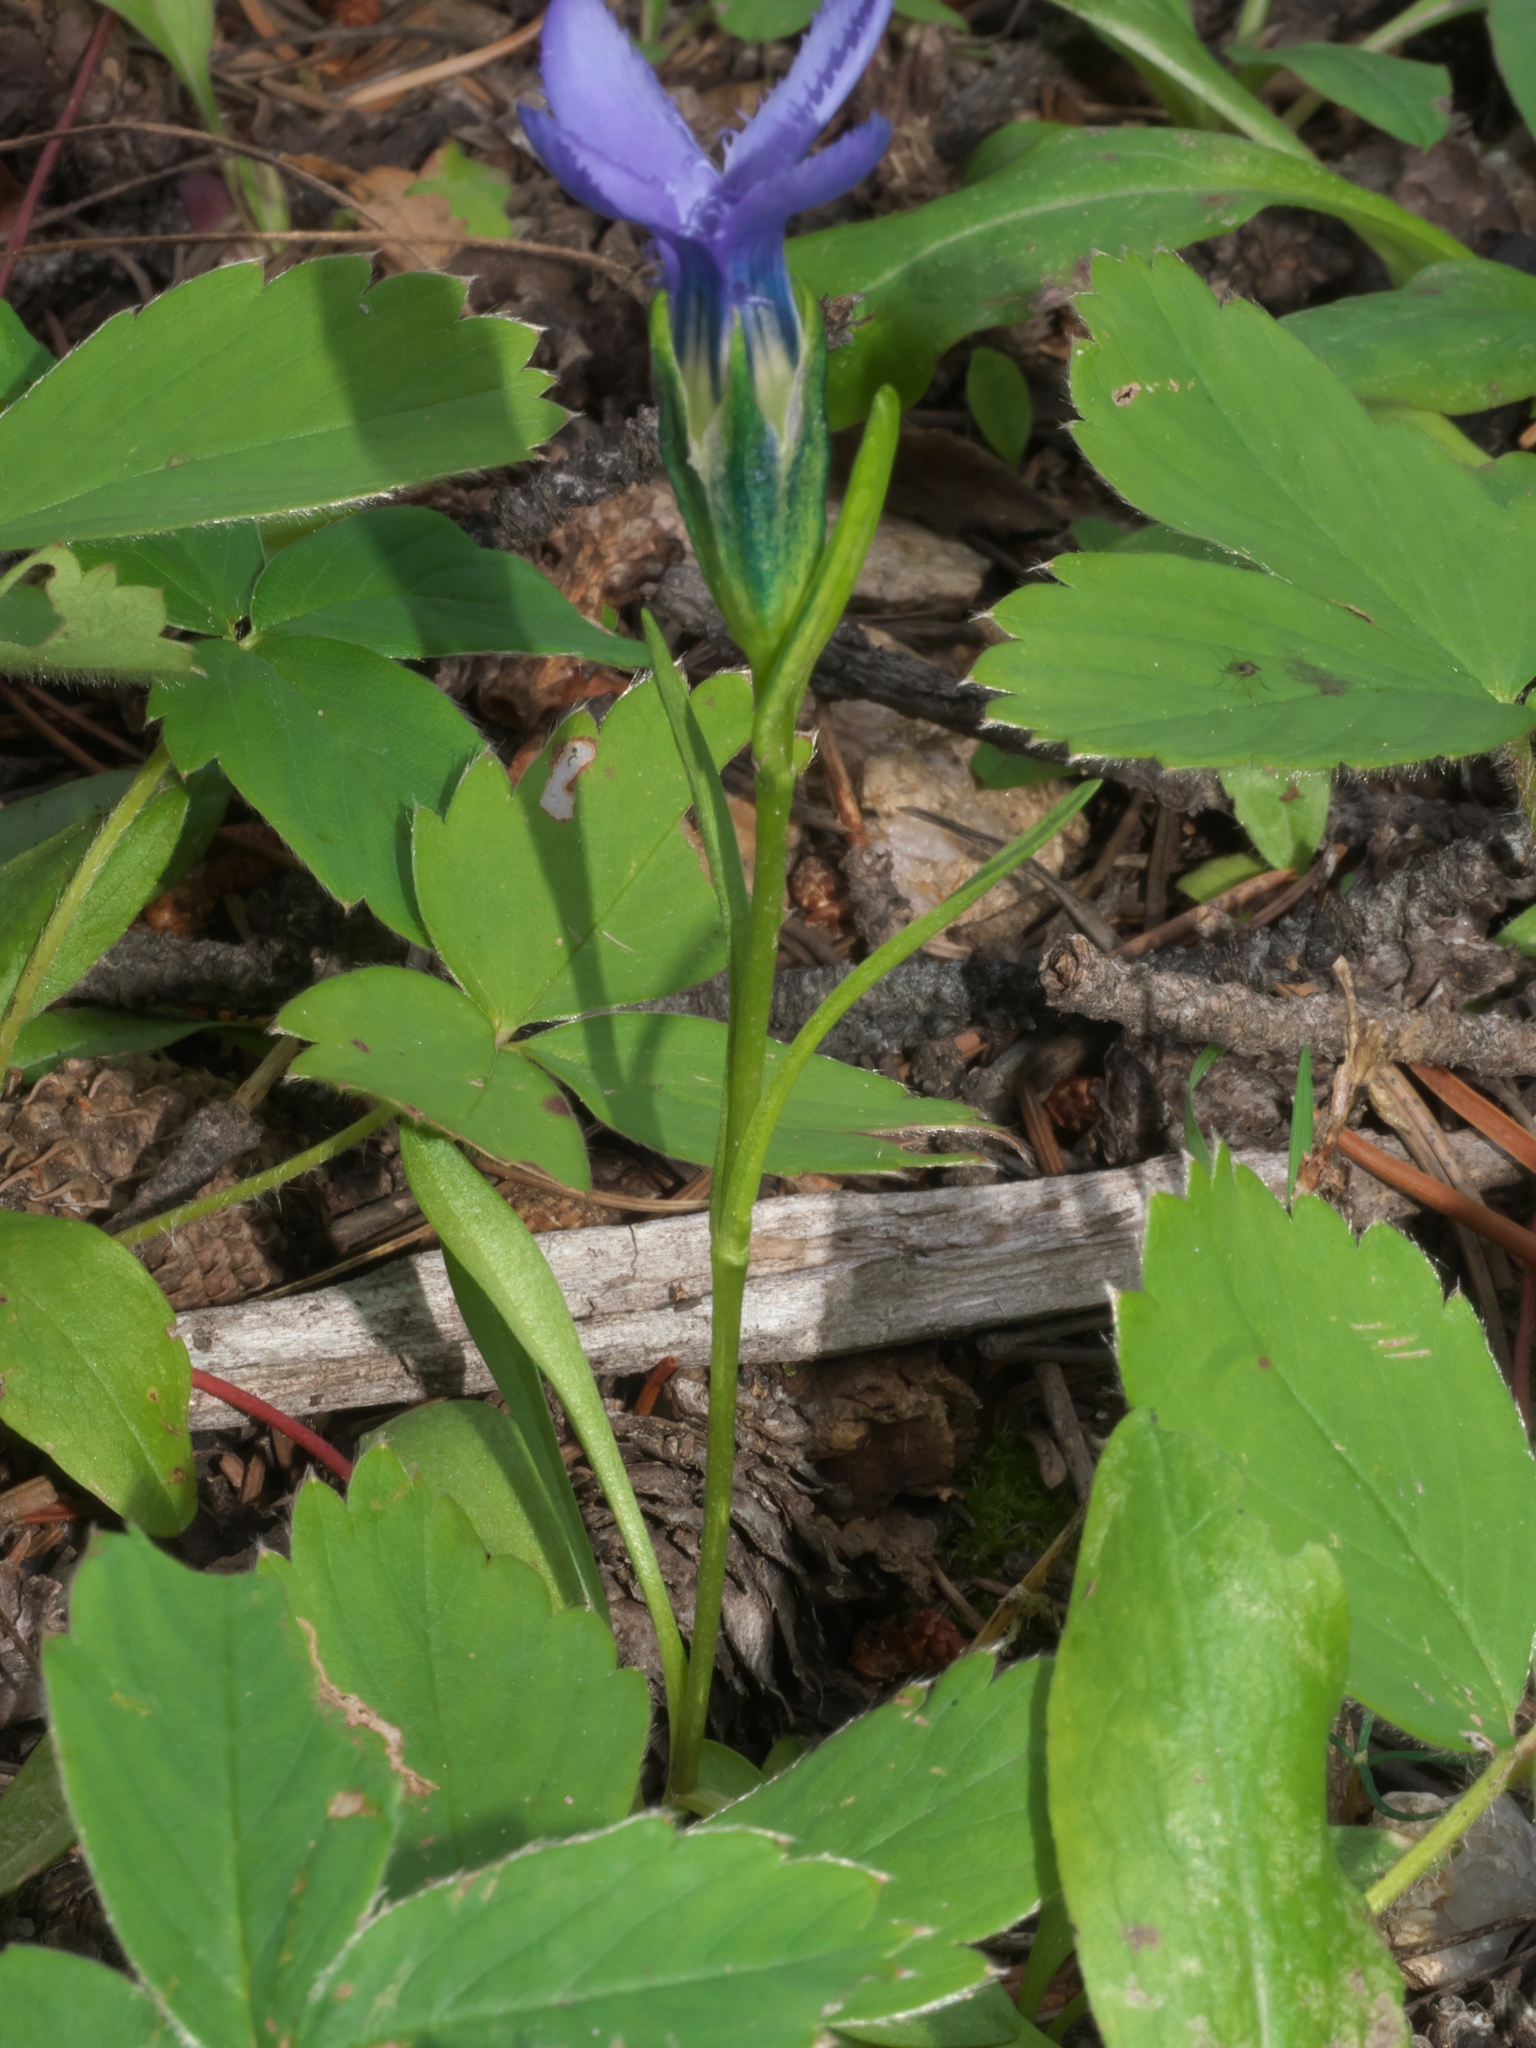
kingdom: Plantae
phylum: Tracheophyta
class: Magnoliopsida
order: Gentianales
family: Gentianaceae
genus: Gentianopsis
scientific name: Gentianopsis barbellata
